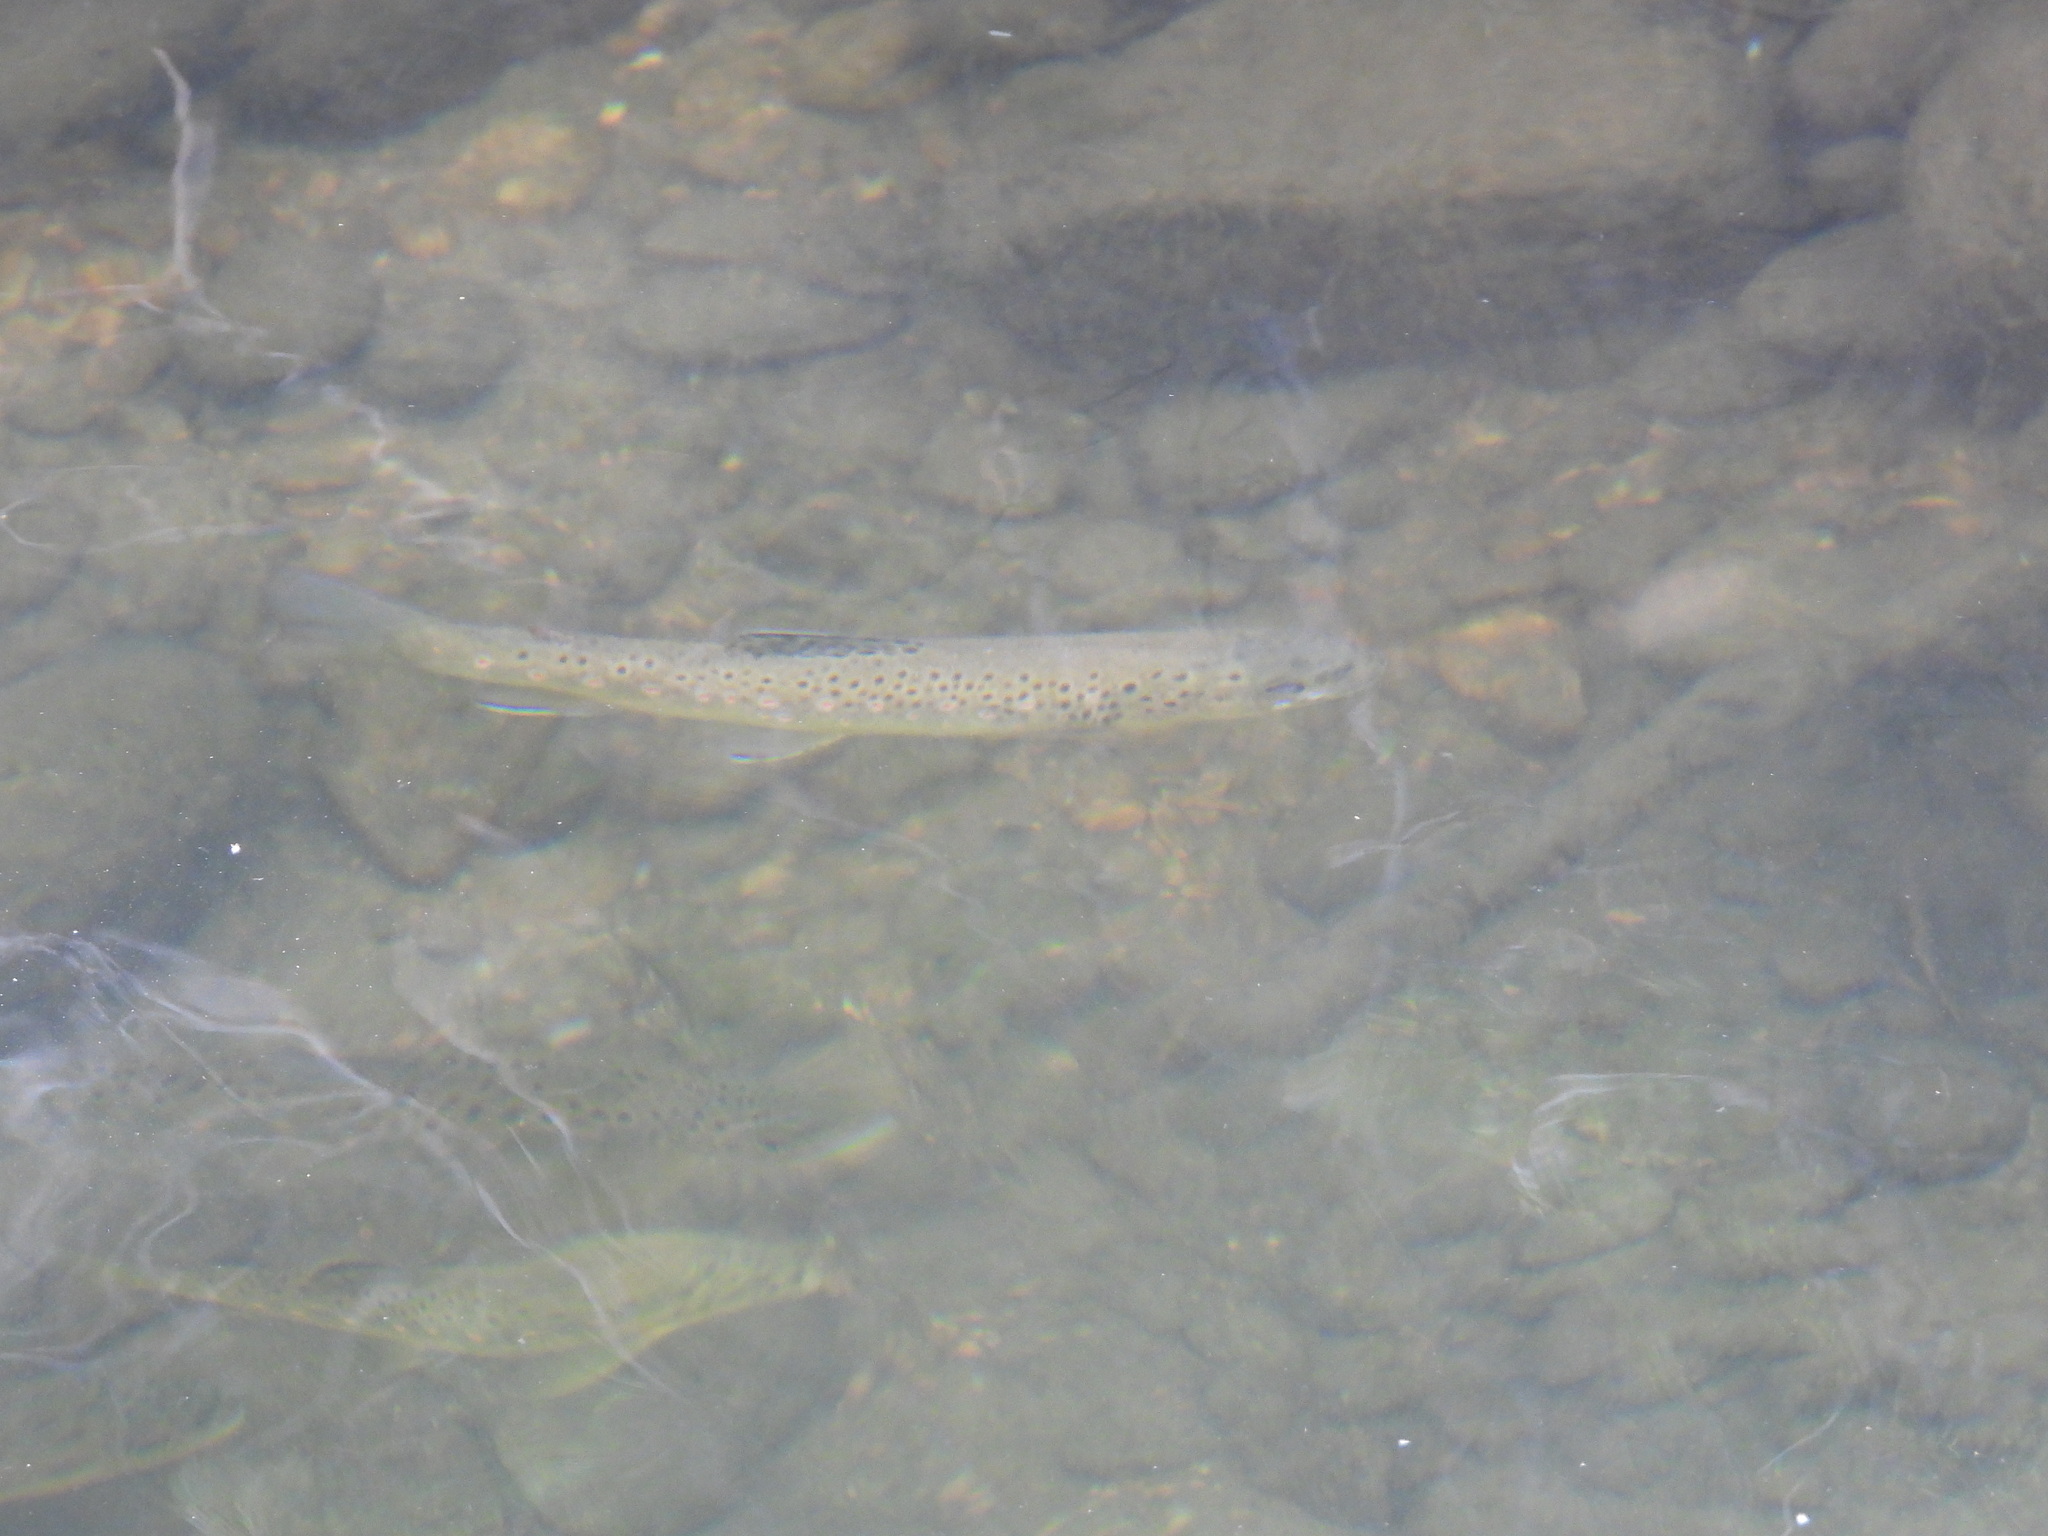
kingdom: Animalia
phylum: Chordata
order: Salmoniformes
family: Salmonidae
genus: Salmo
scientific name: Salmo trutta
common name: Brown trout
